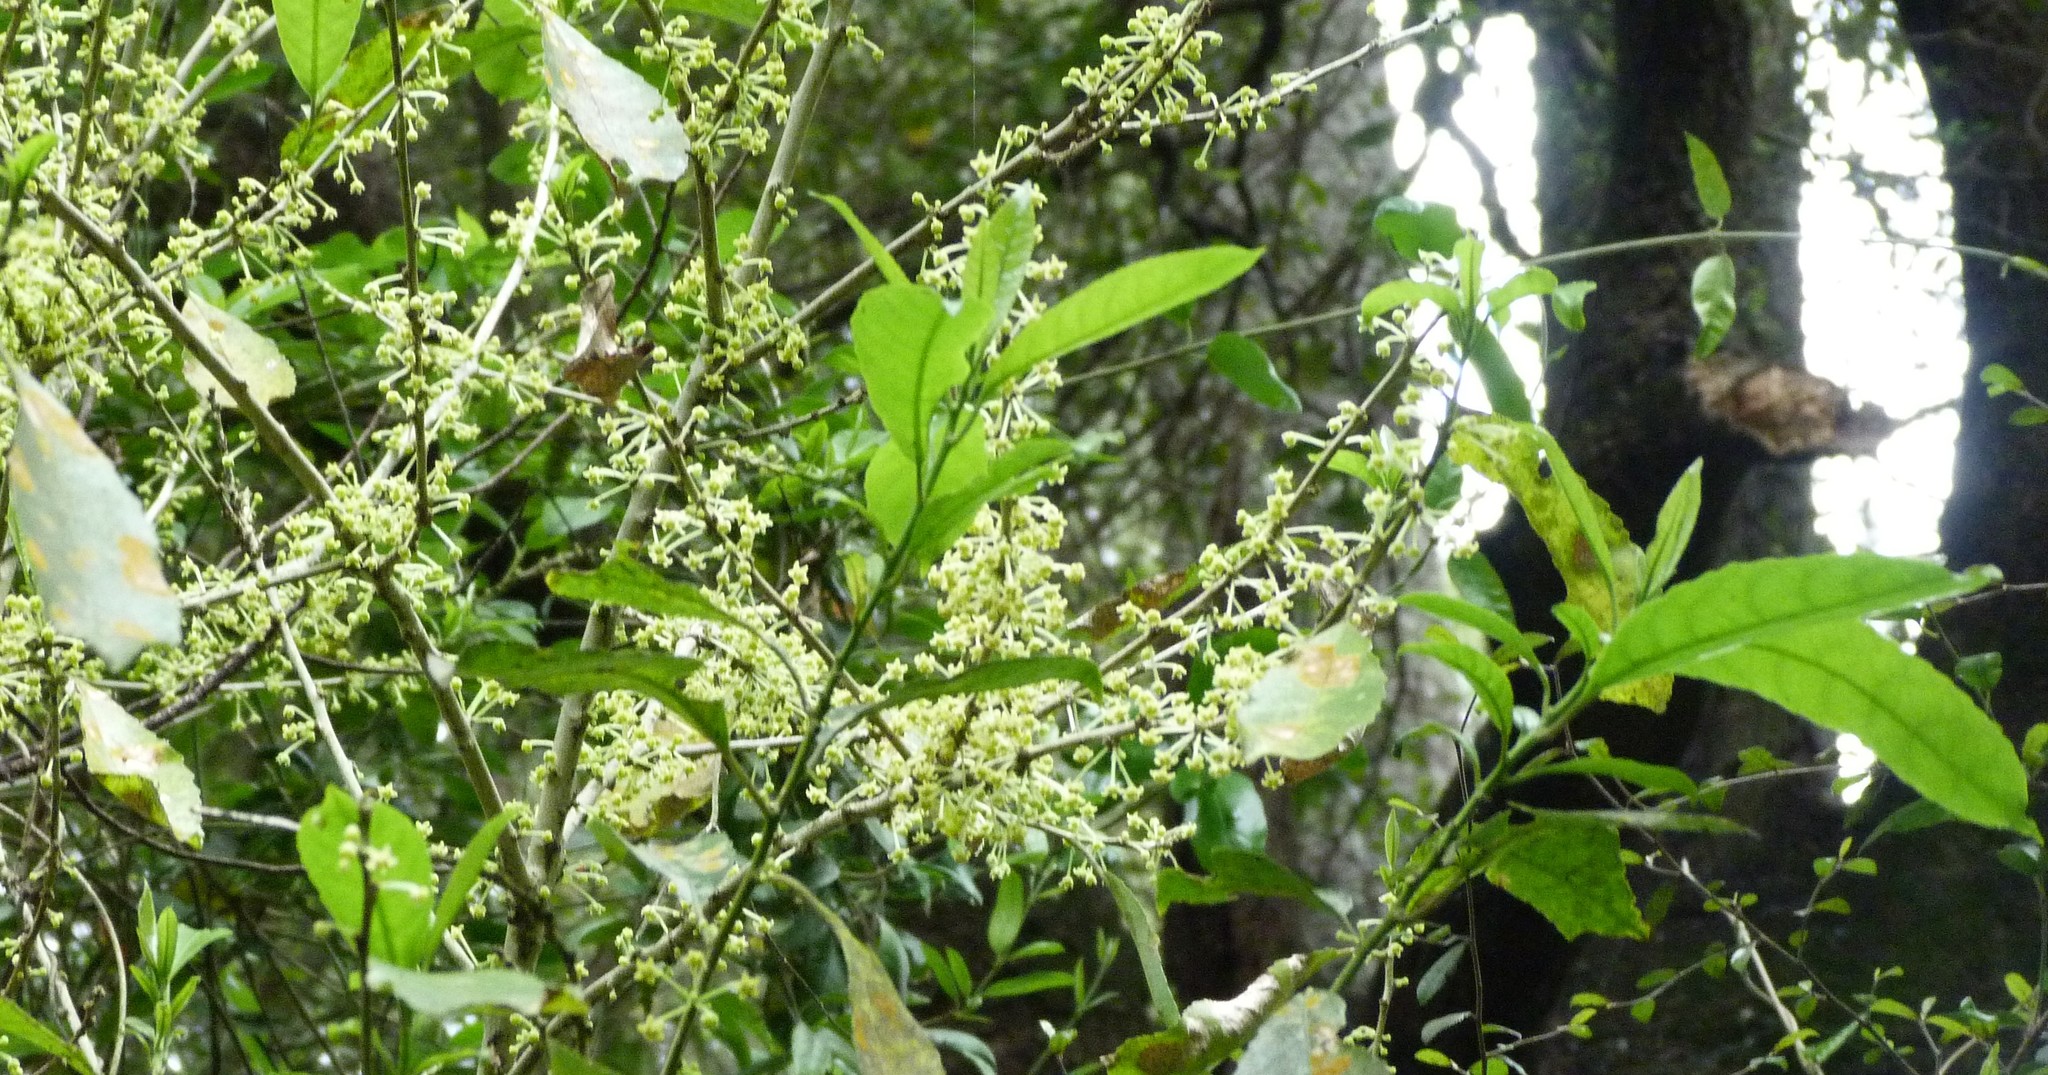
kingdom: Plantae
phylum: Tracheophyta
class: Magnoliopsida
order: Malpighiales
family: Violaceae
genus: Melicytus
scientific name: Melicytus ramiflorus
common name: Mahoe
